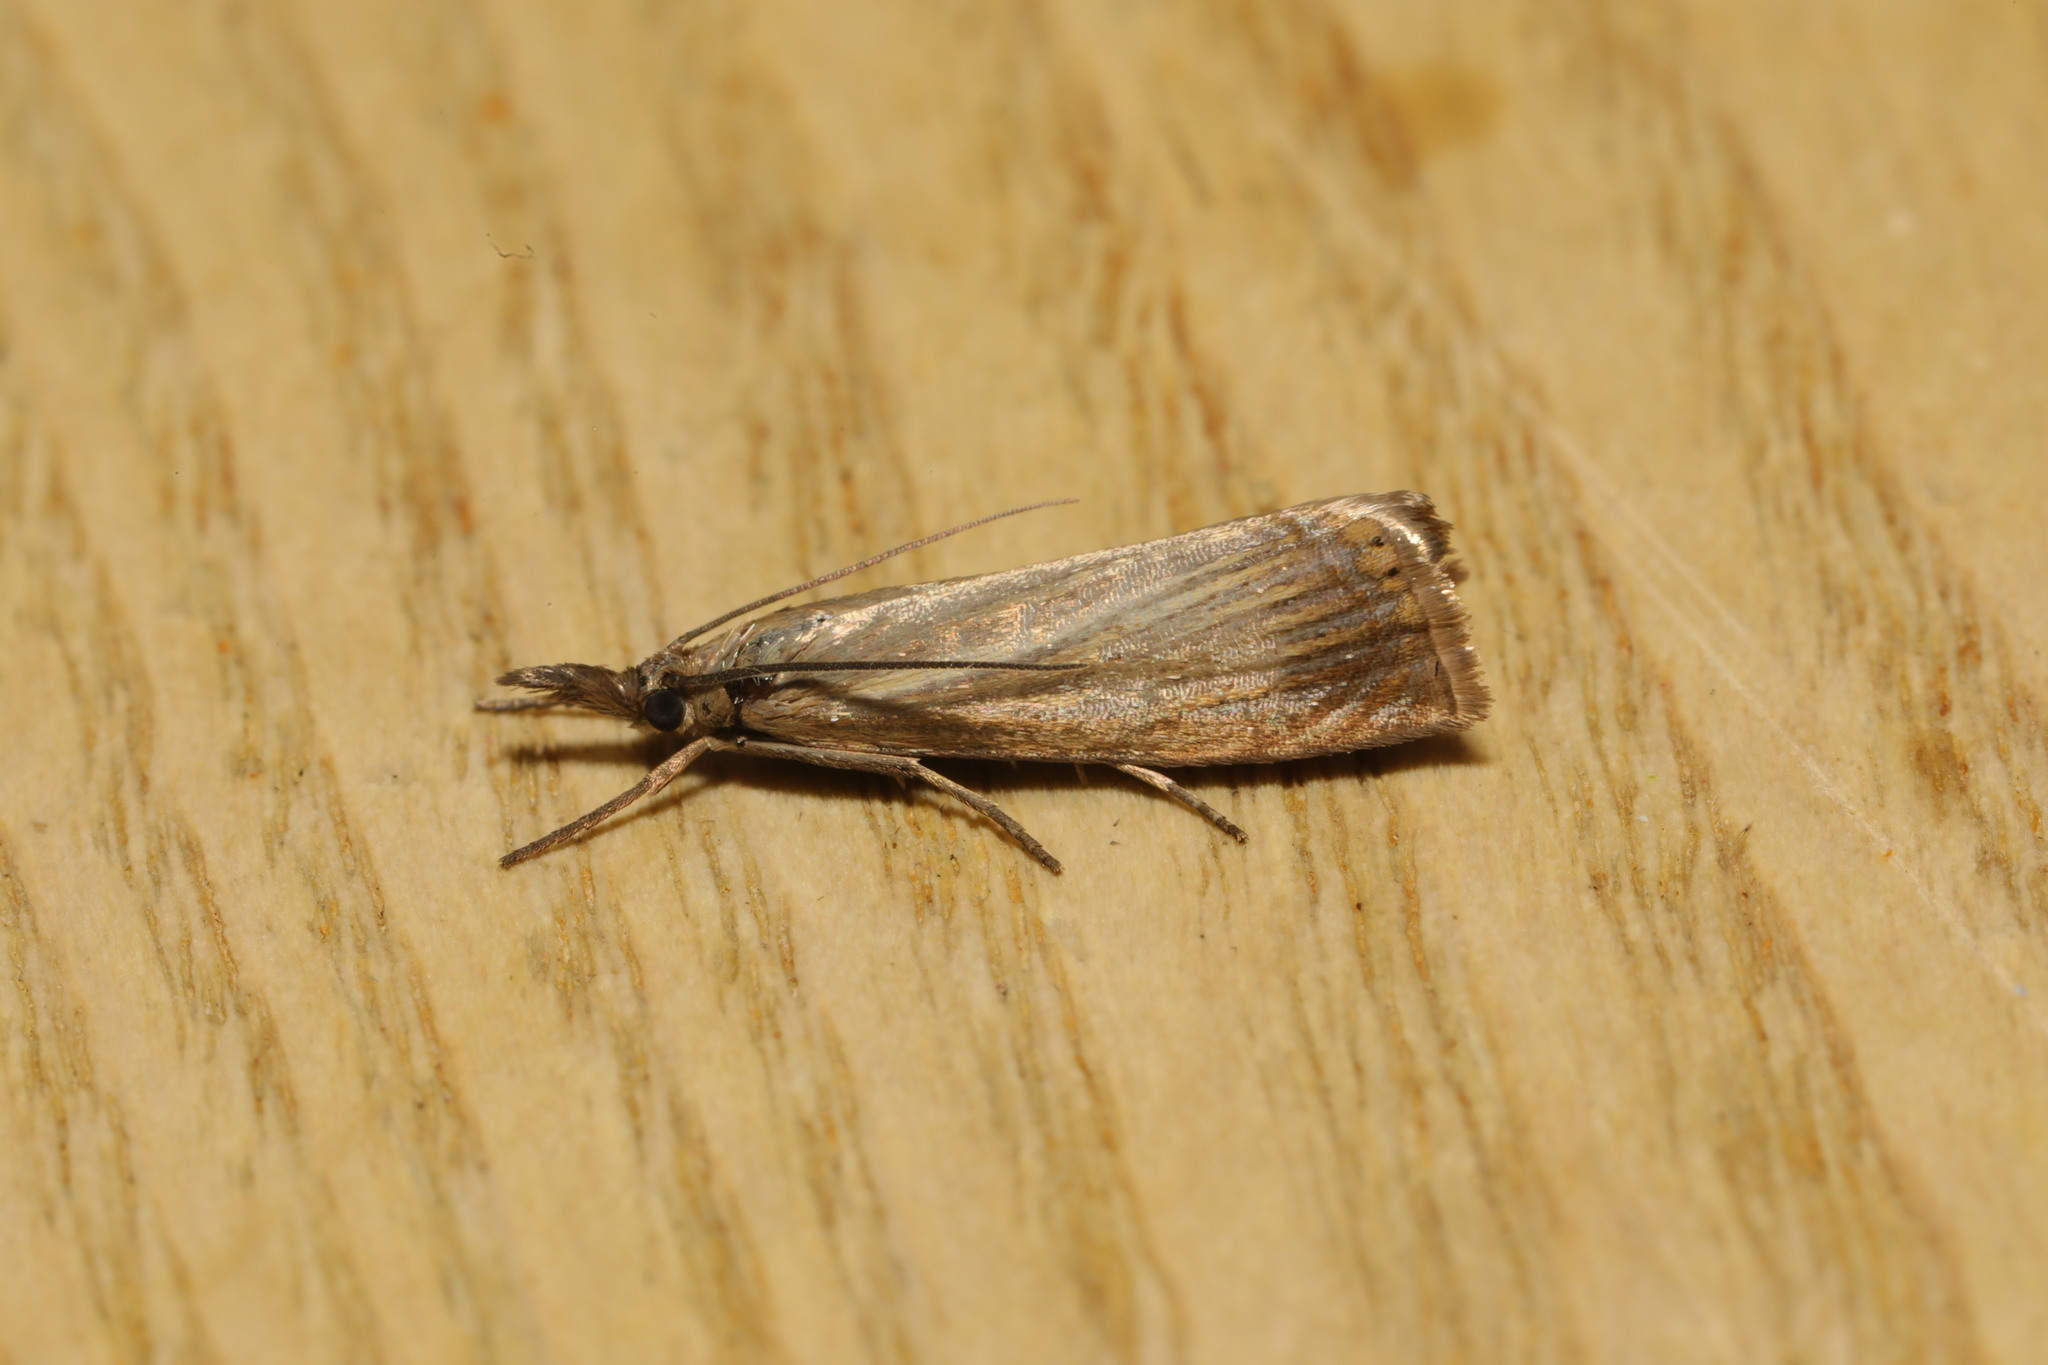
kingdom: Animalia
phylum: Arthropoda
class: Insecta
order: Lepidoptera
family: Crambidae
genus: Chrysoteuchia
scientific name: Chrysoteuchia culmella
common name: Garden grass-veneer
